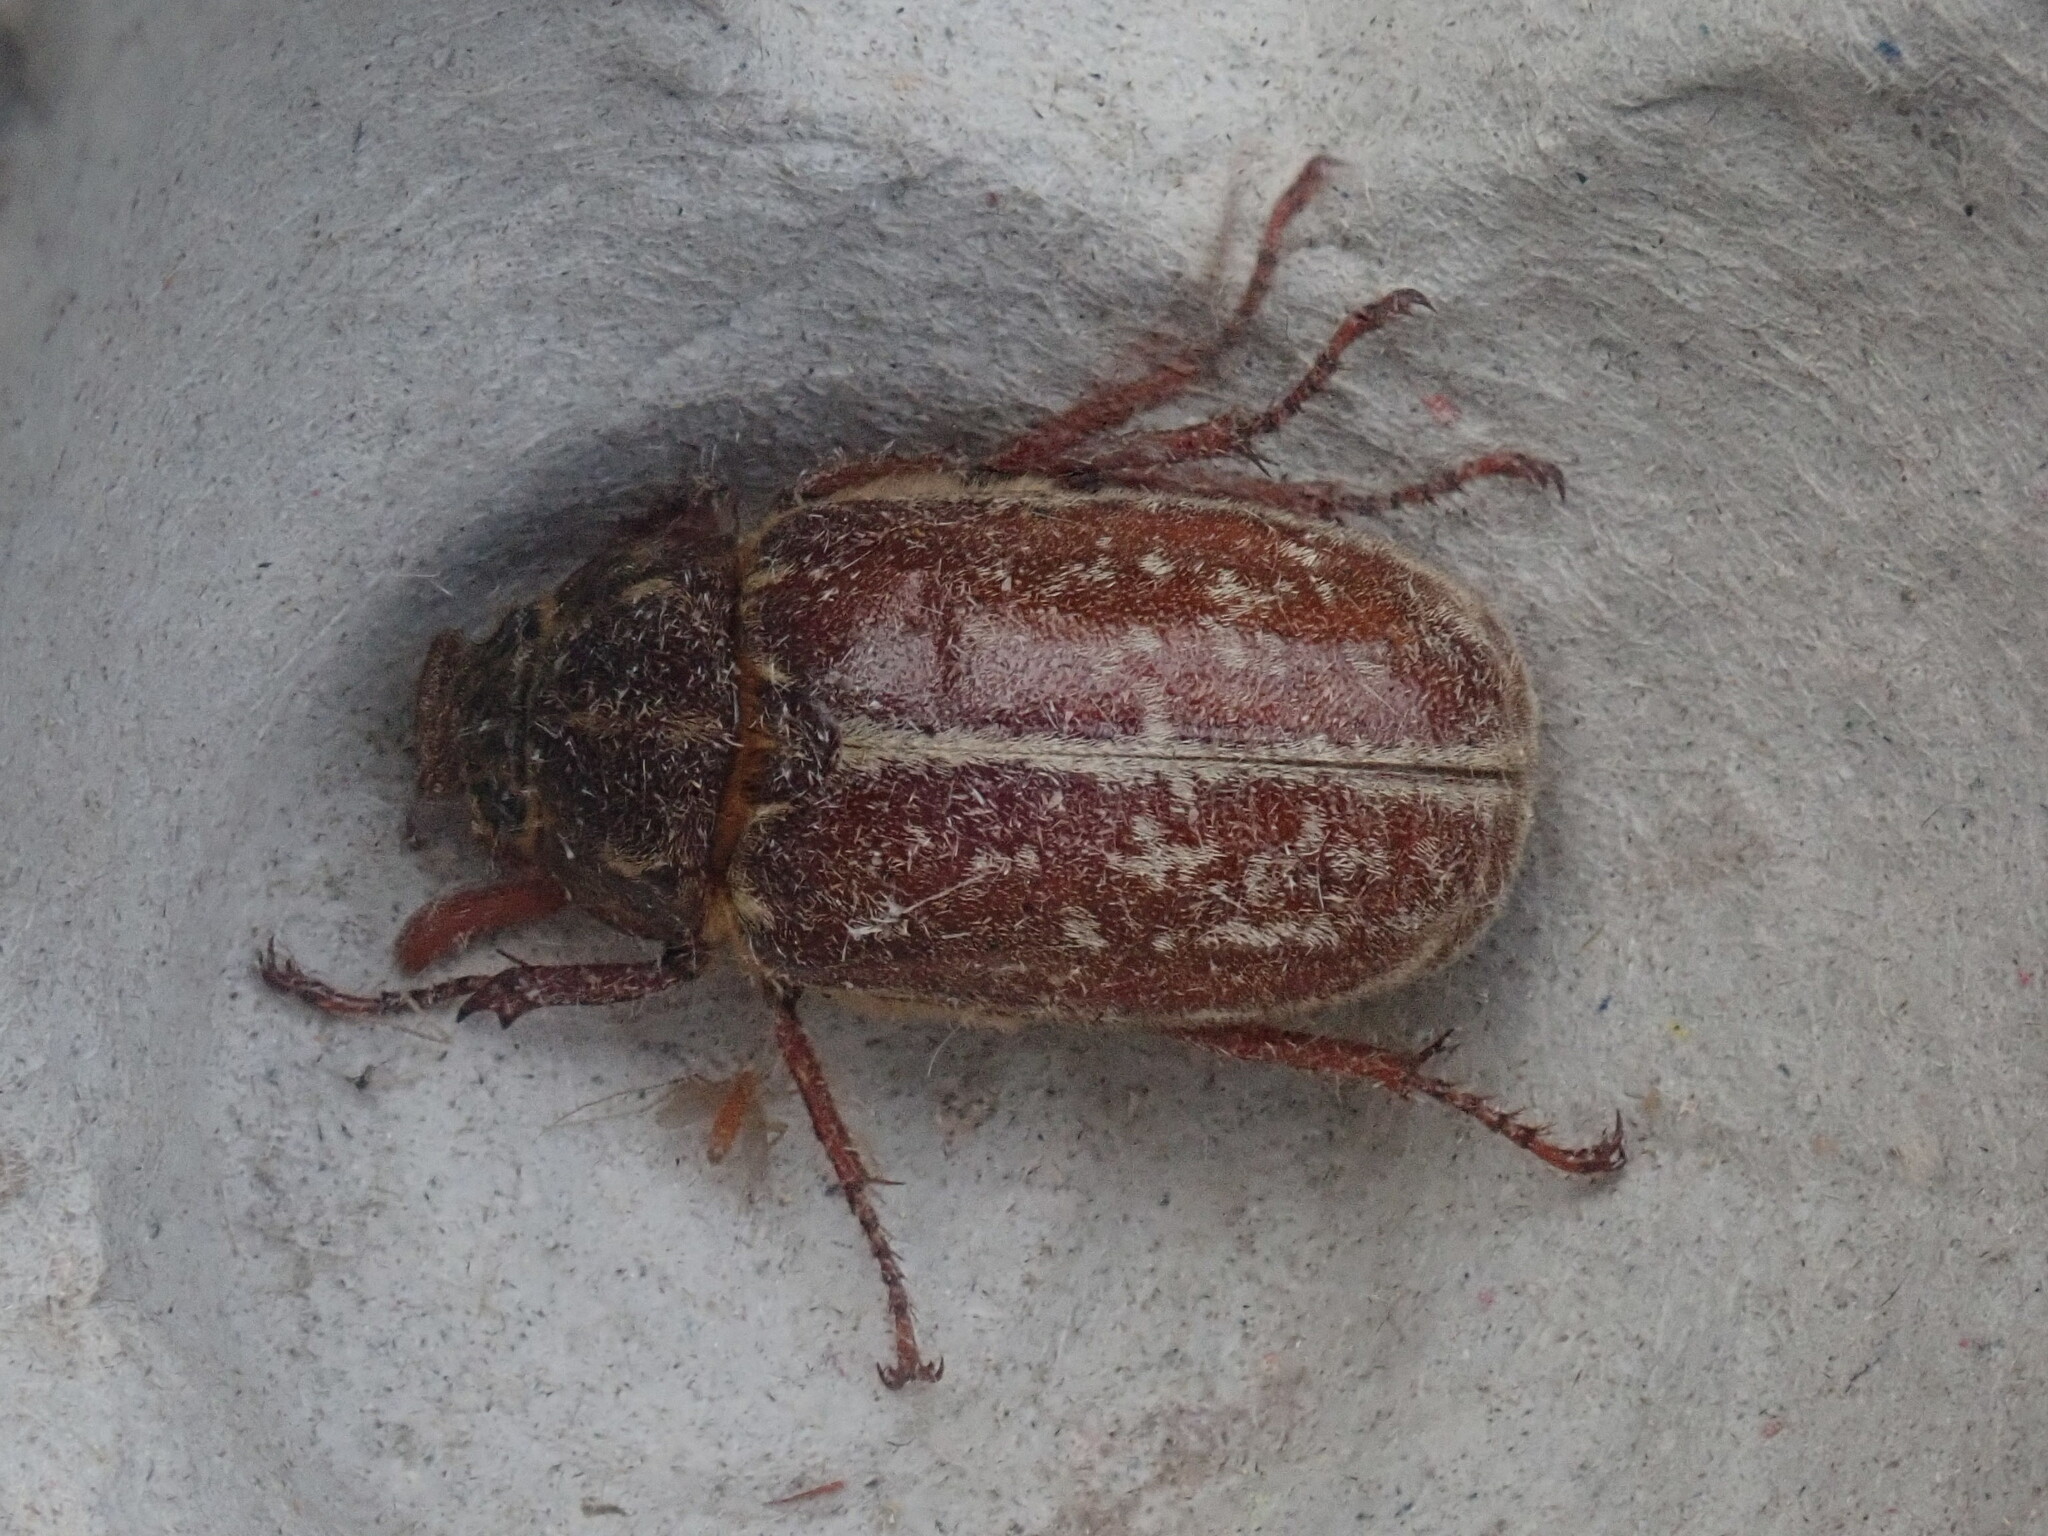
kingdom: Animalia
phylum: Arthropoda
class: Insecta
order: Coleoptera
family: Scarabaeidae
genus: Polyphylla
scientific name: Polyphylla variolosa
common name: Variegated june beetle
